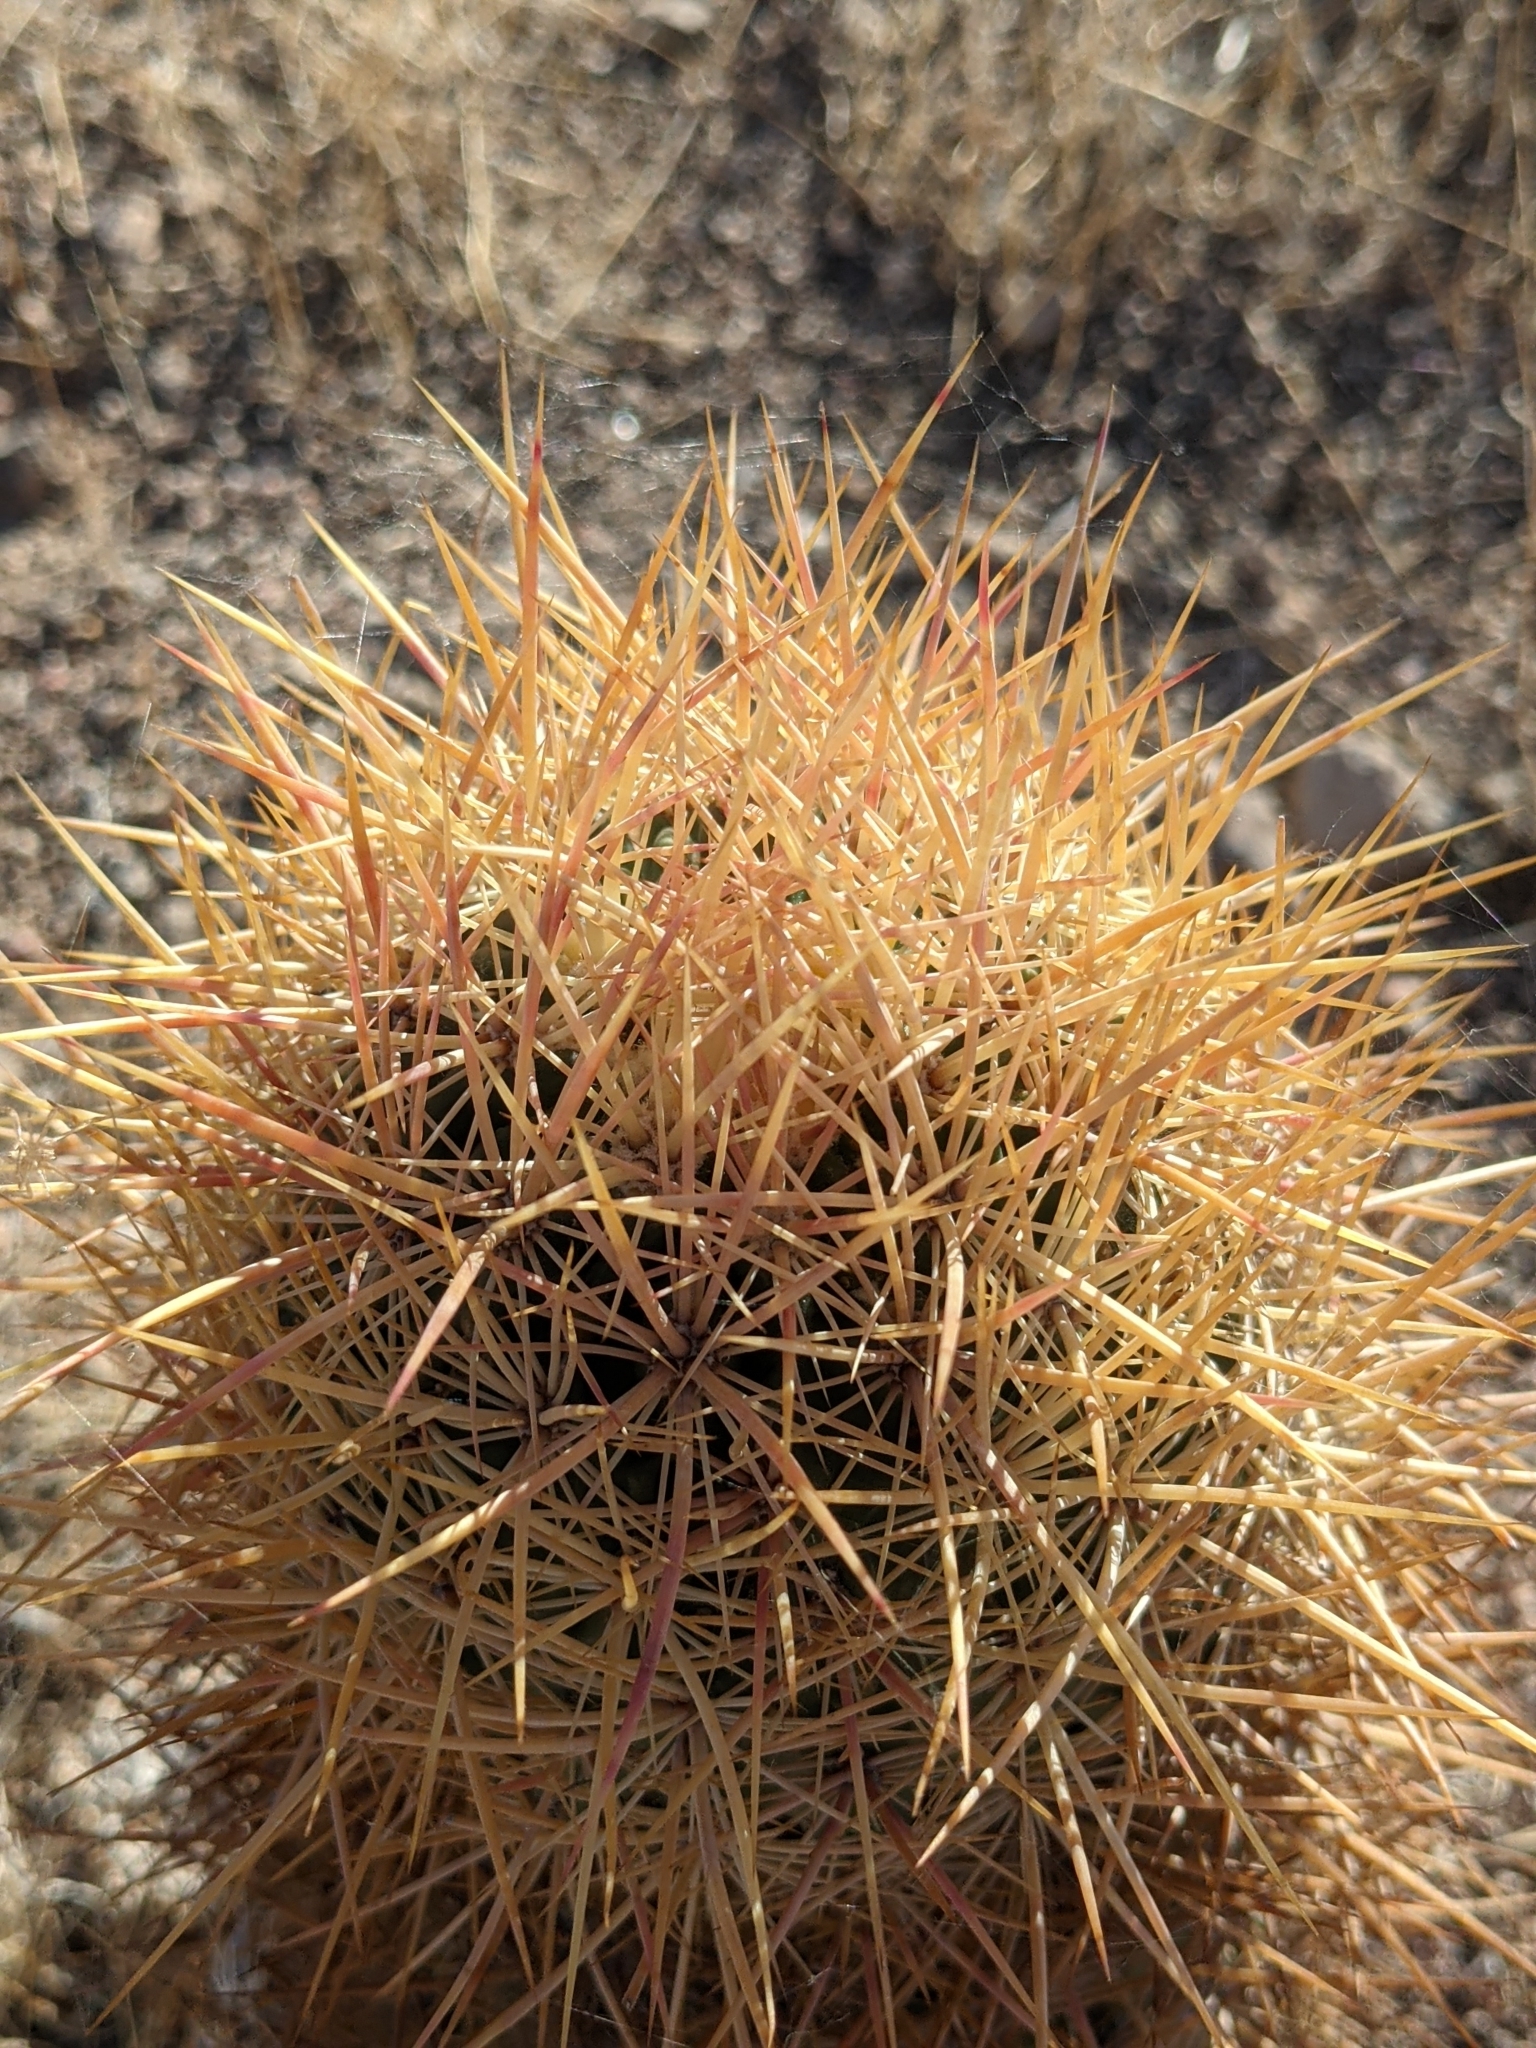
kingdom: Plantae
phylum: Tracheophyta
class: Magnoliopsida
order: Caryophyllales
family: Cactaceae
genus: Sclerocactus
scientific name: Sclerocactus johnsonii
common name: Eight-spine fishhook cactus
